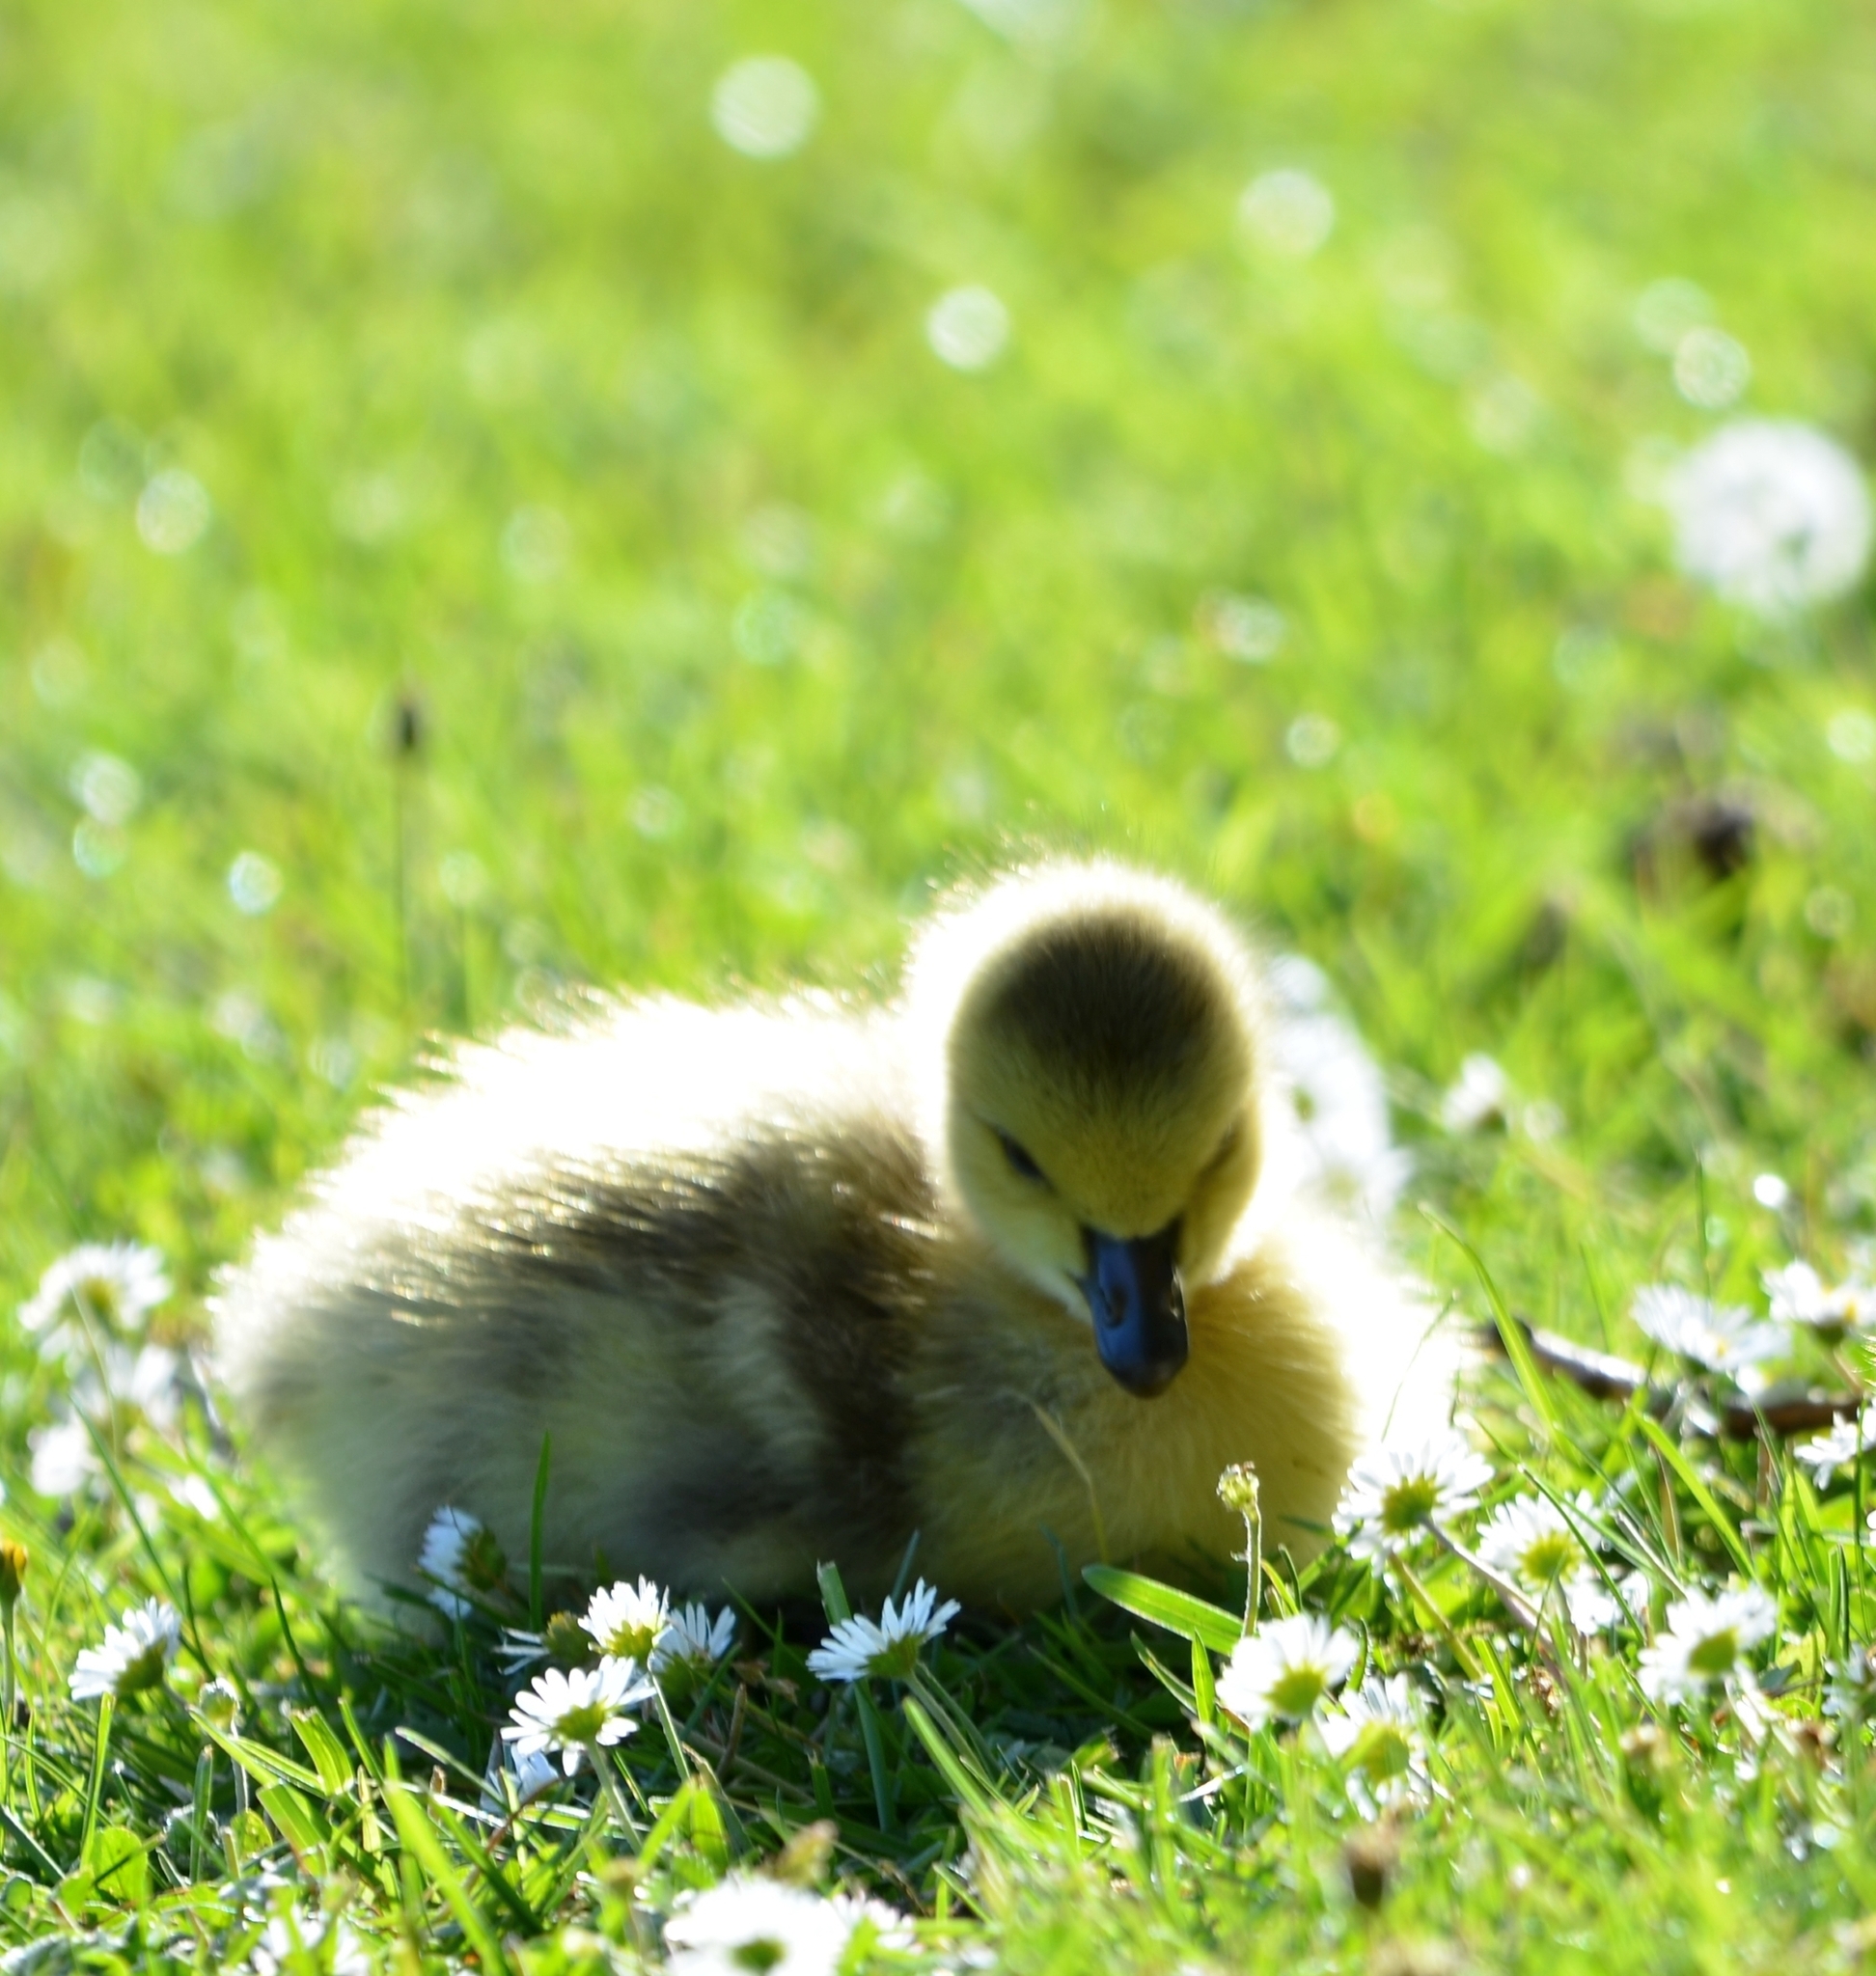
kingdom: Animalia
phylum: Chordata
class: Aves
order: Anseriformes
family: Anatidae
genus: Branta
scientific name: Branta canadensis
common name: Canada goose
